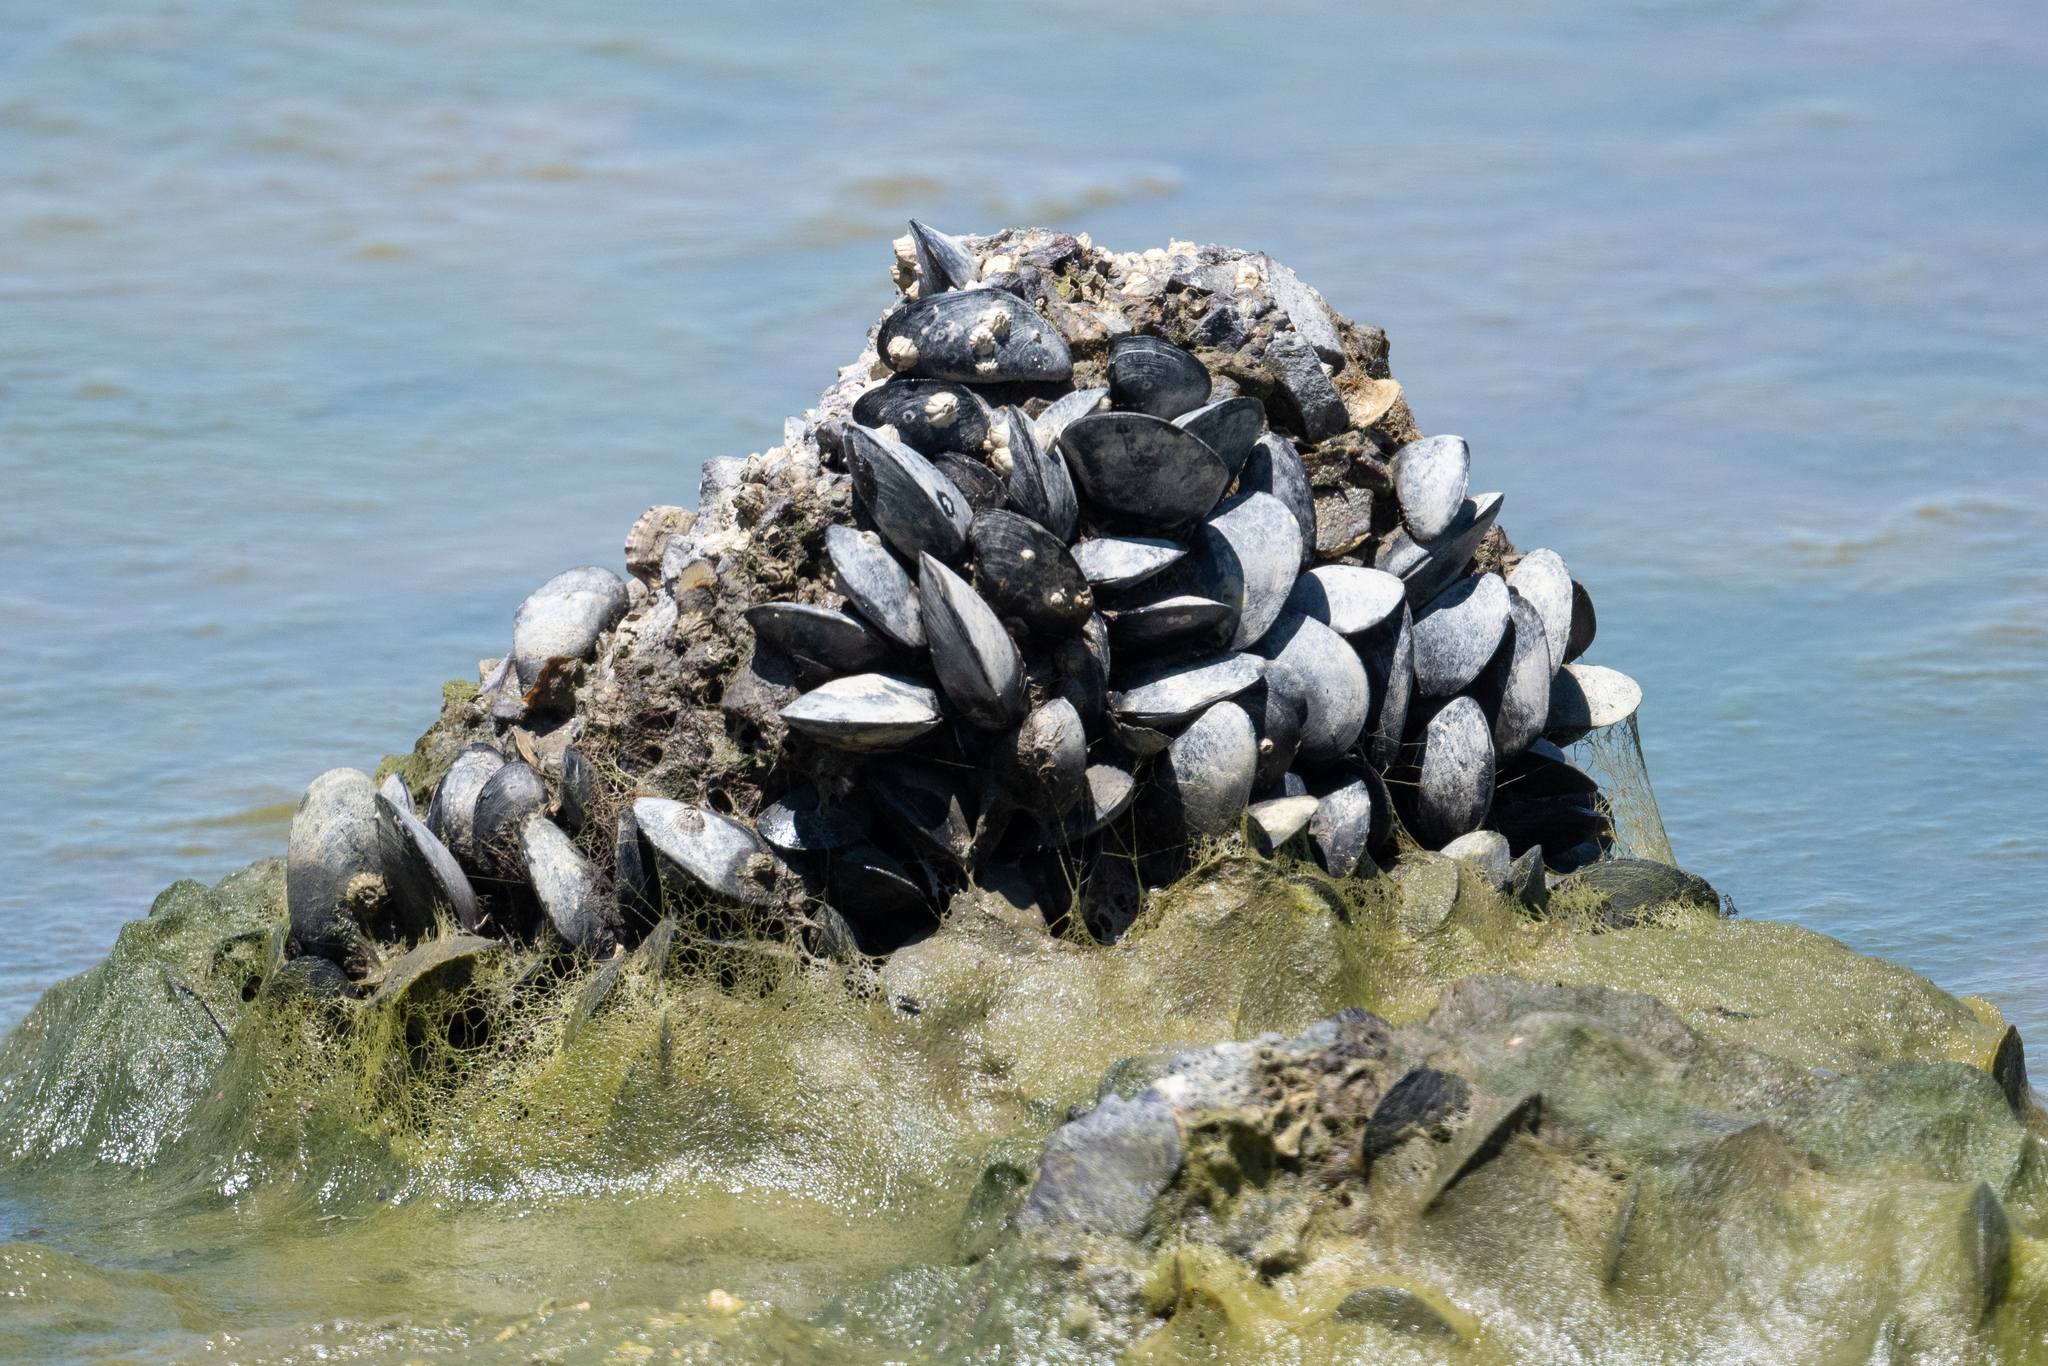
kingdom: Animalia
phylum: Mollusca
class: Bivalvia
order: Mytilida
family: Mytilidae
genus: Mytilus
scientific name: Mytilus
